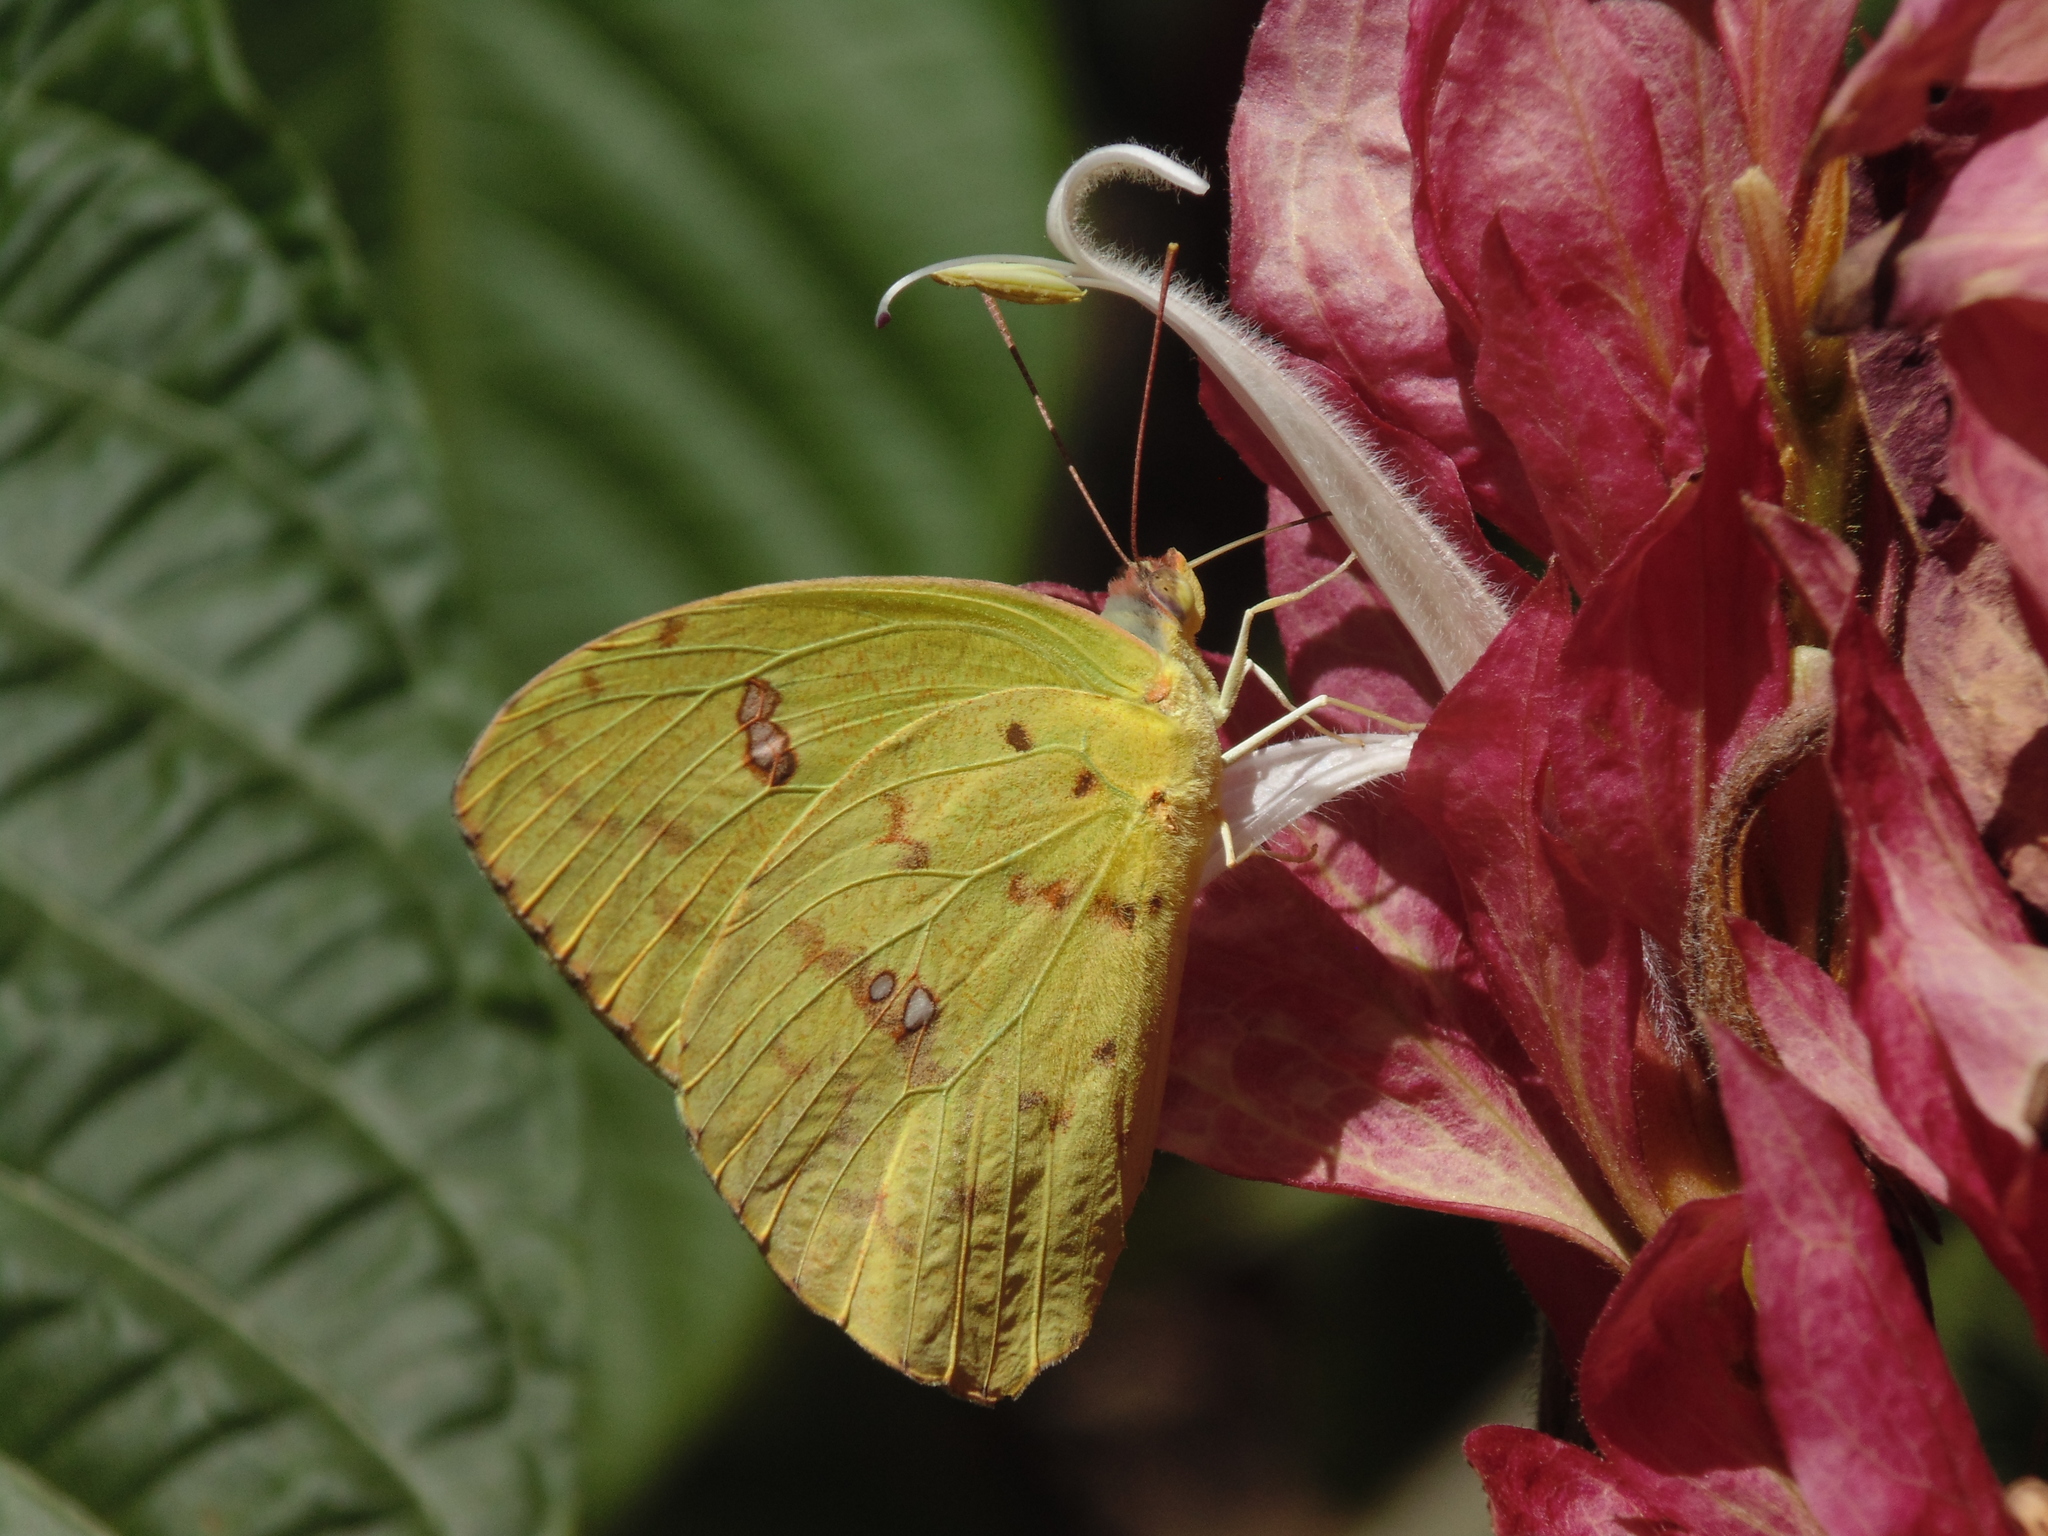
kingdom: Animalia
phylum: Arthropoda
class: Insecta
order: Lepidoptera
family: Pieridae
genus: Phoebis
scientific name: Phoebis sennae
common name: Cloudless sulphur
